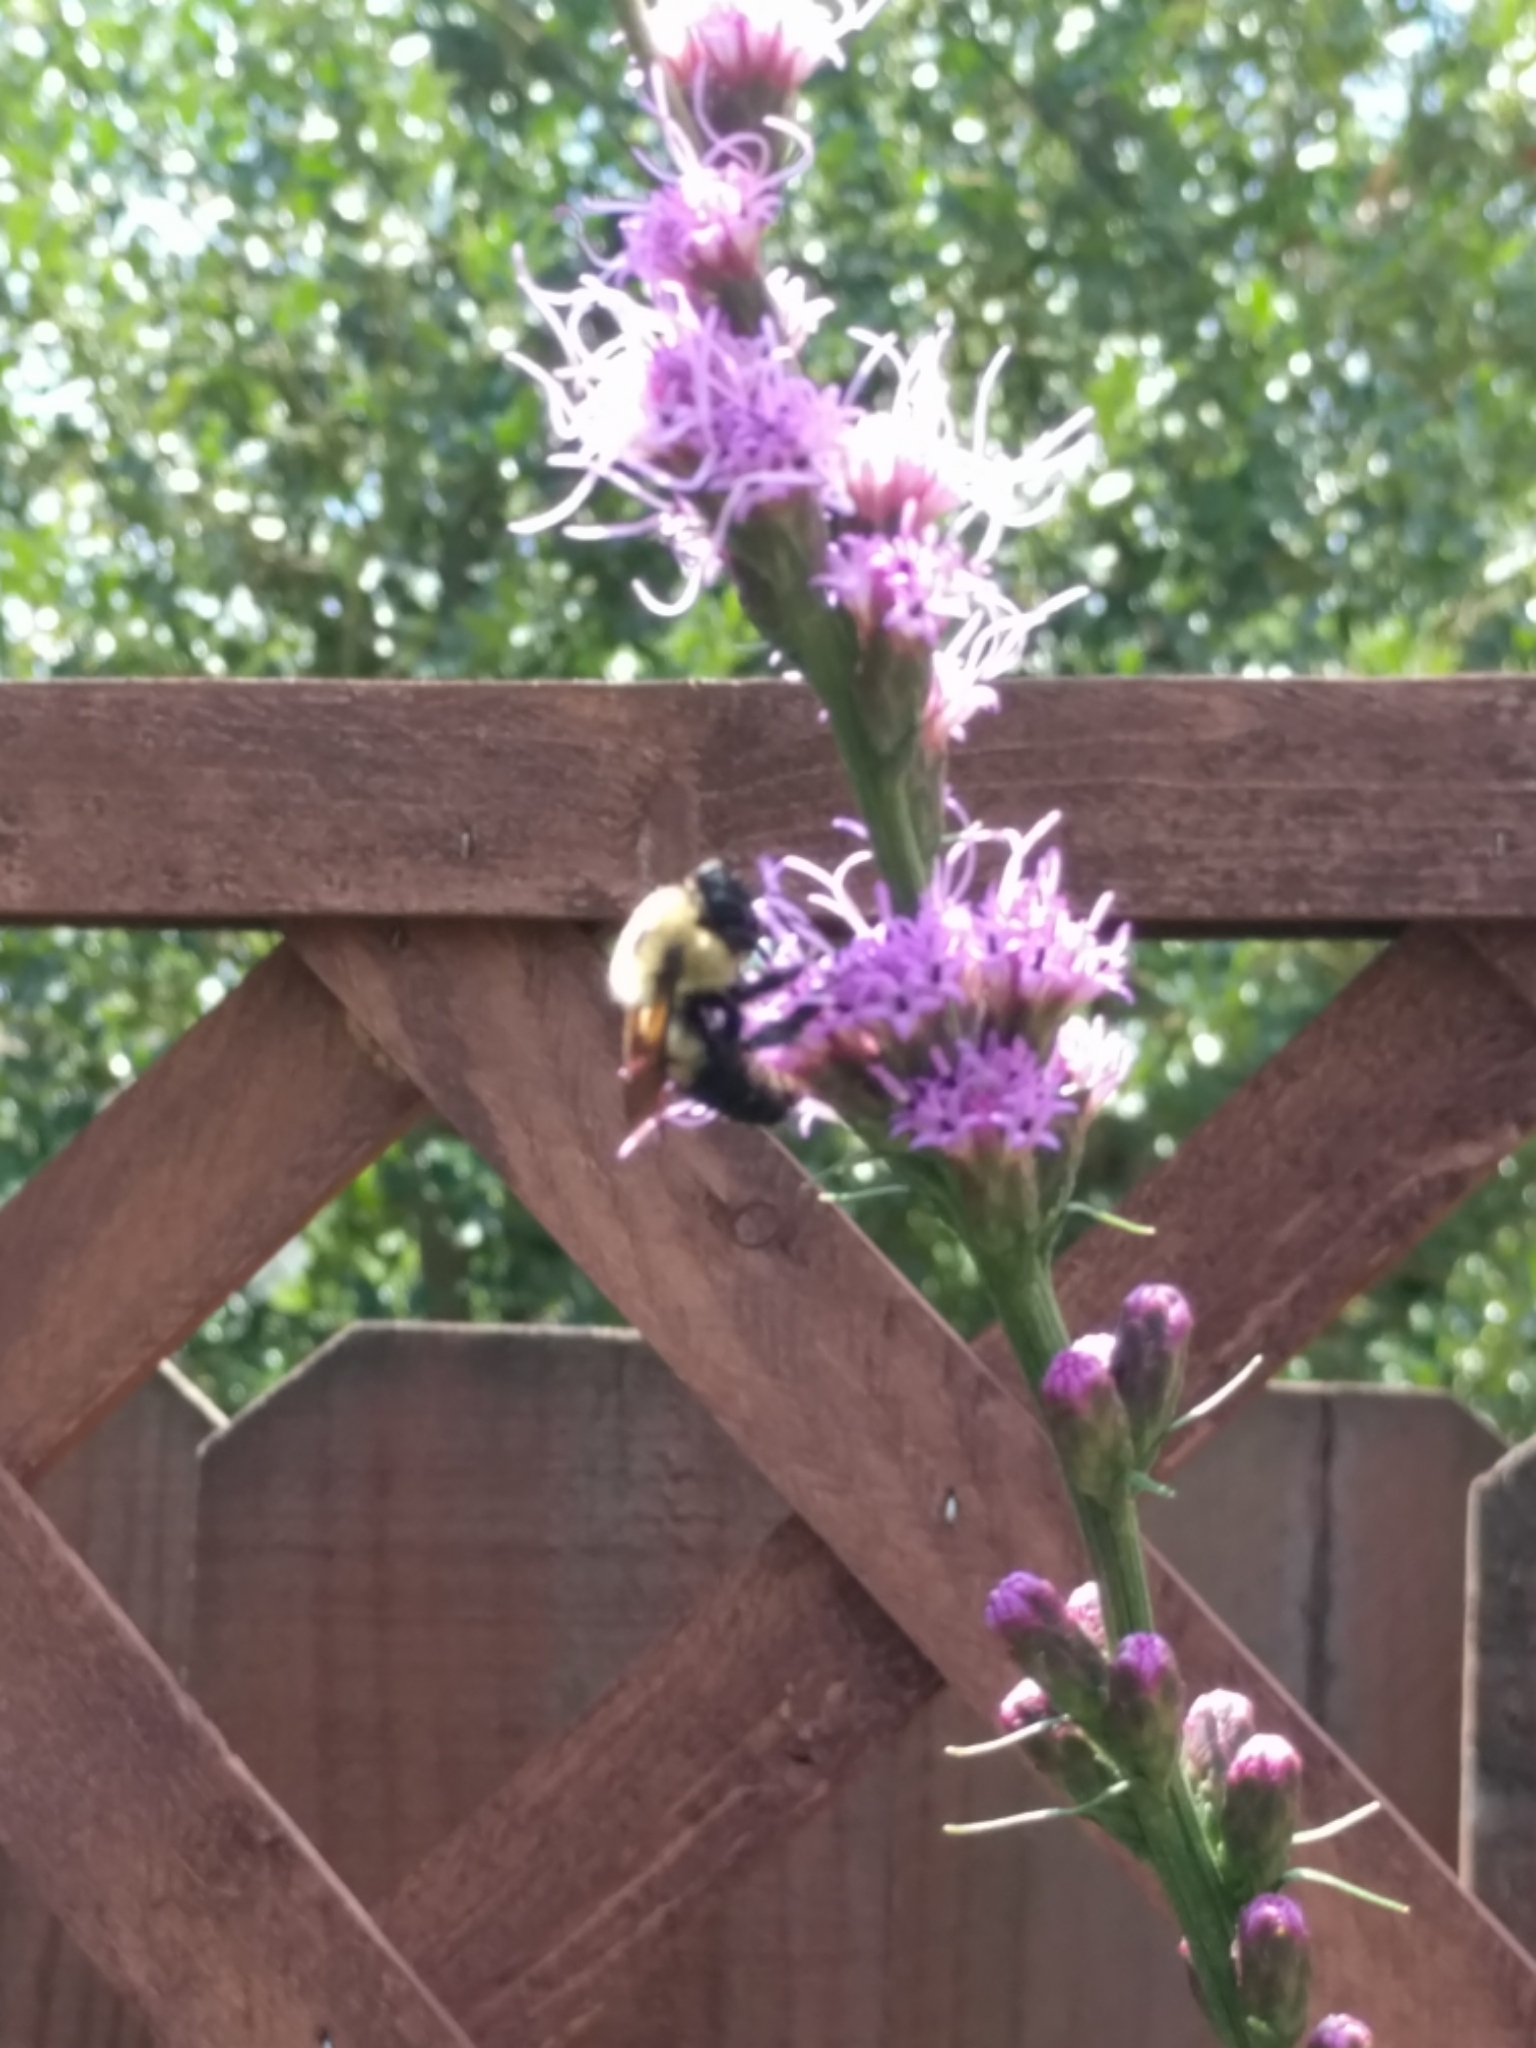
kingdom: Animalia
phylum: Arthropoda
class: Insecta
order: Hymenoptera
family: Apidae
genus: Bombus
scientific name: Bombus griseocollis
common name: Brown-belted bumble bee
